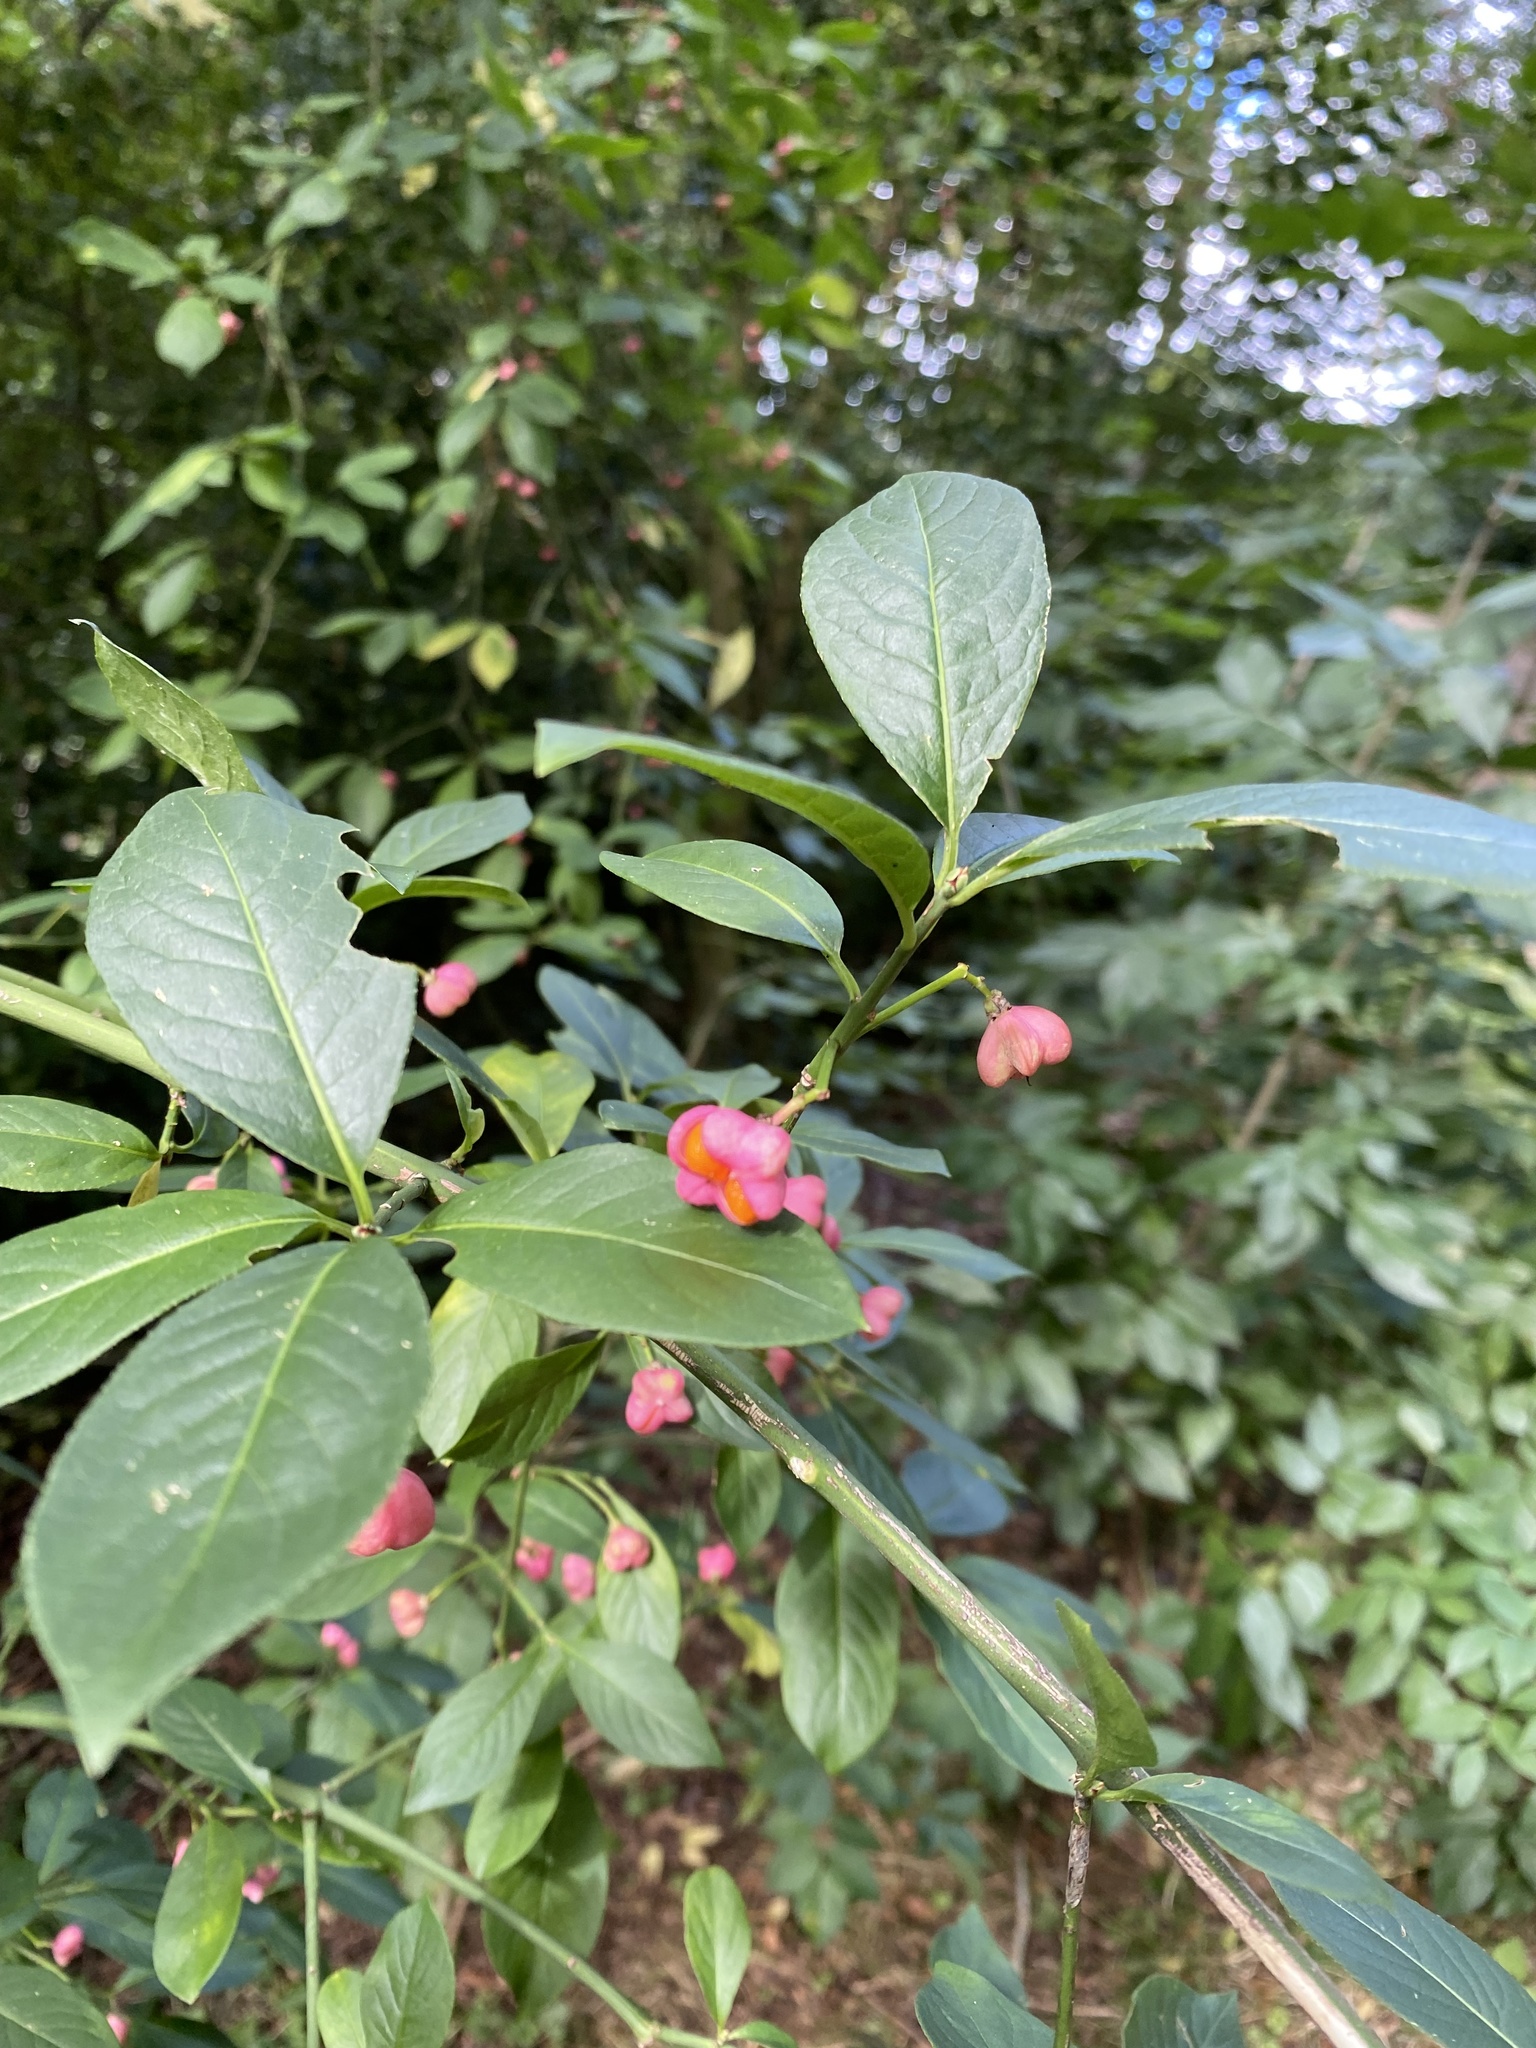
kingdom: Plantae
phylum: Tracheophyta
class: Magnoliopsida
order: Celastrales
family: Celastraceae
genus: Euonymus
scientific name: Euonymus europaeus
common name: Spindle
